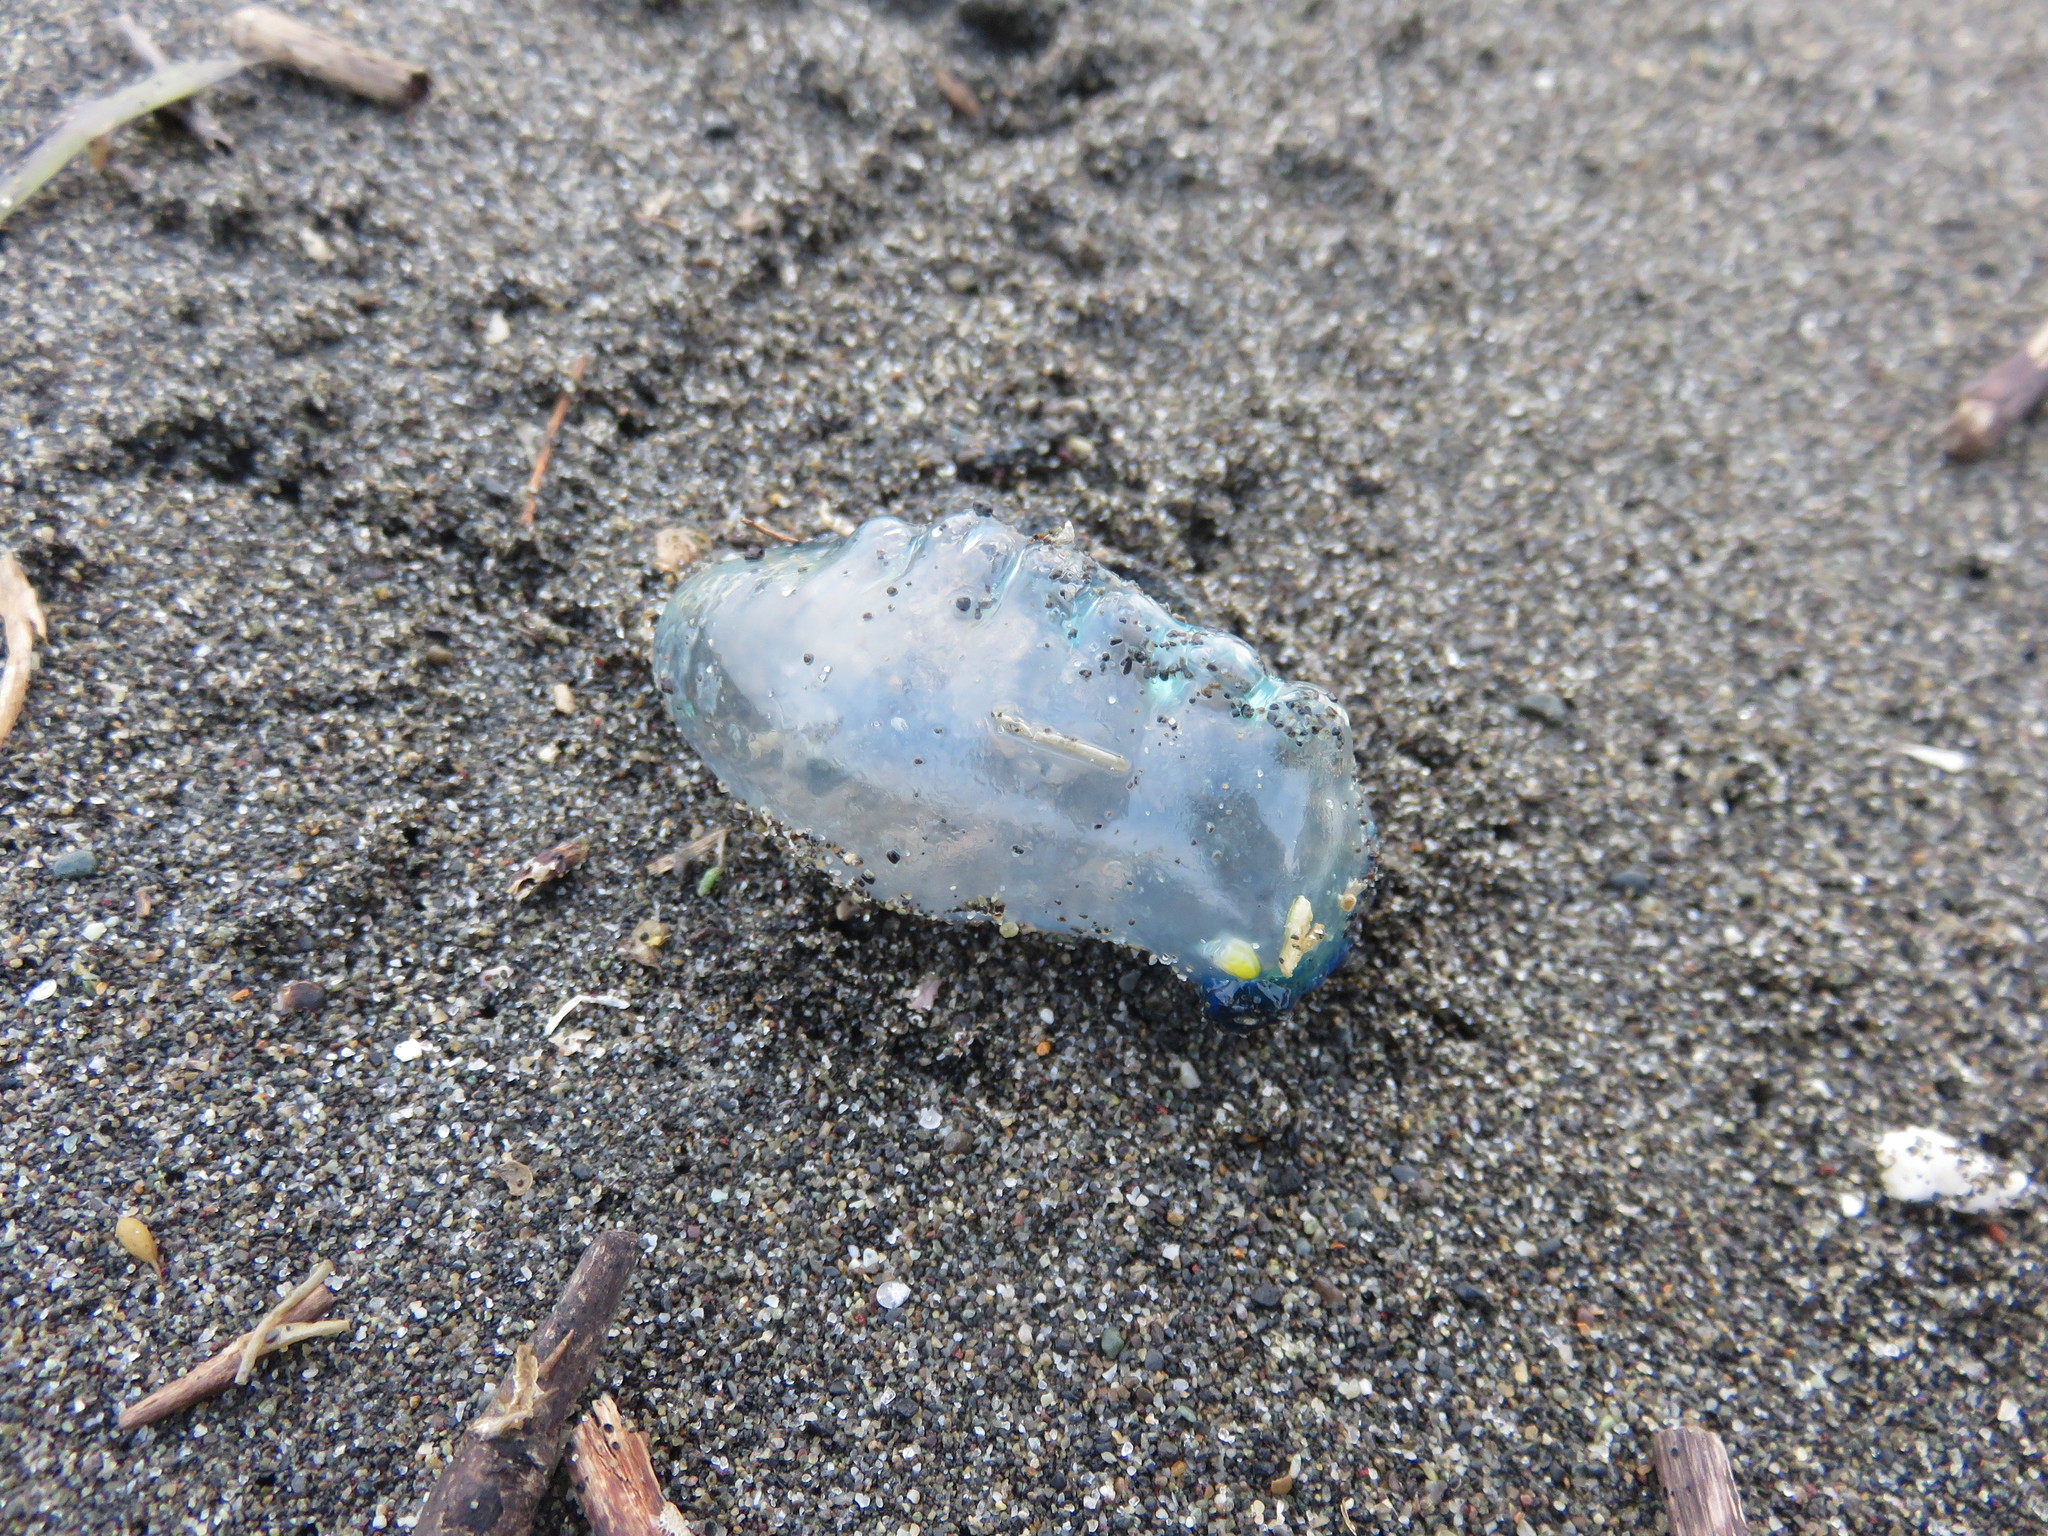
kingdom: Animalia
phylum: Cnidaria
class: Hydrozoa
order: Siphonophorae
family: Physaliidae
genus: Physalia
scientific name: Physalia physalis
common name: Portuguese man-of-war
